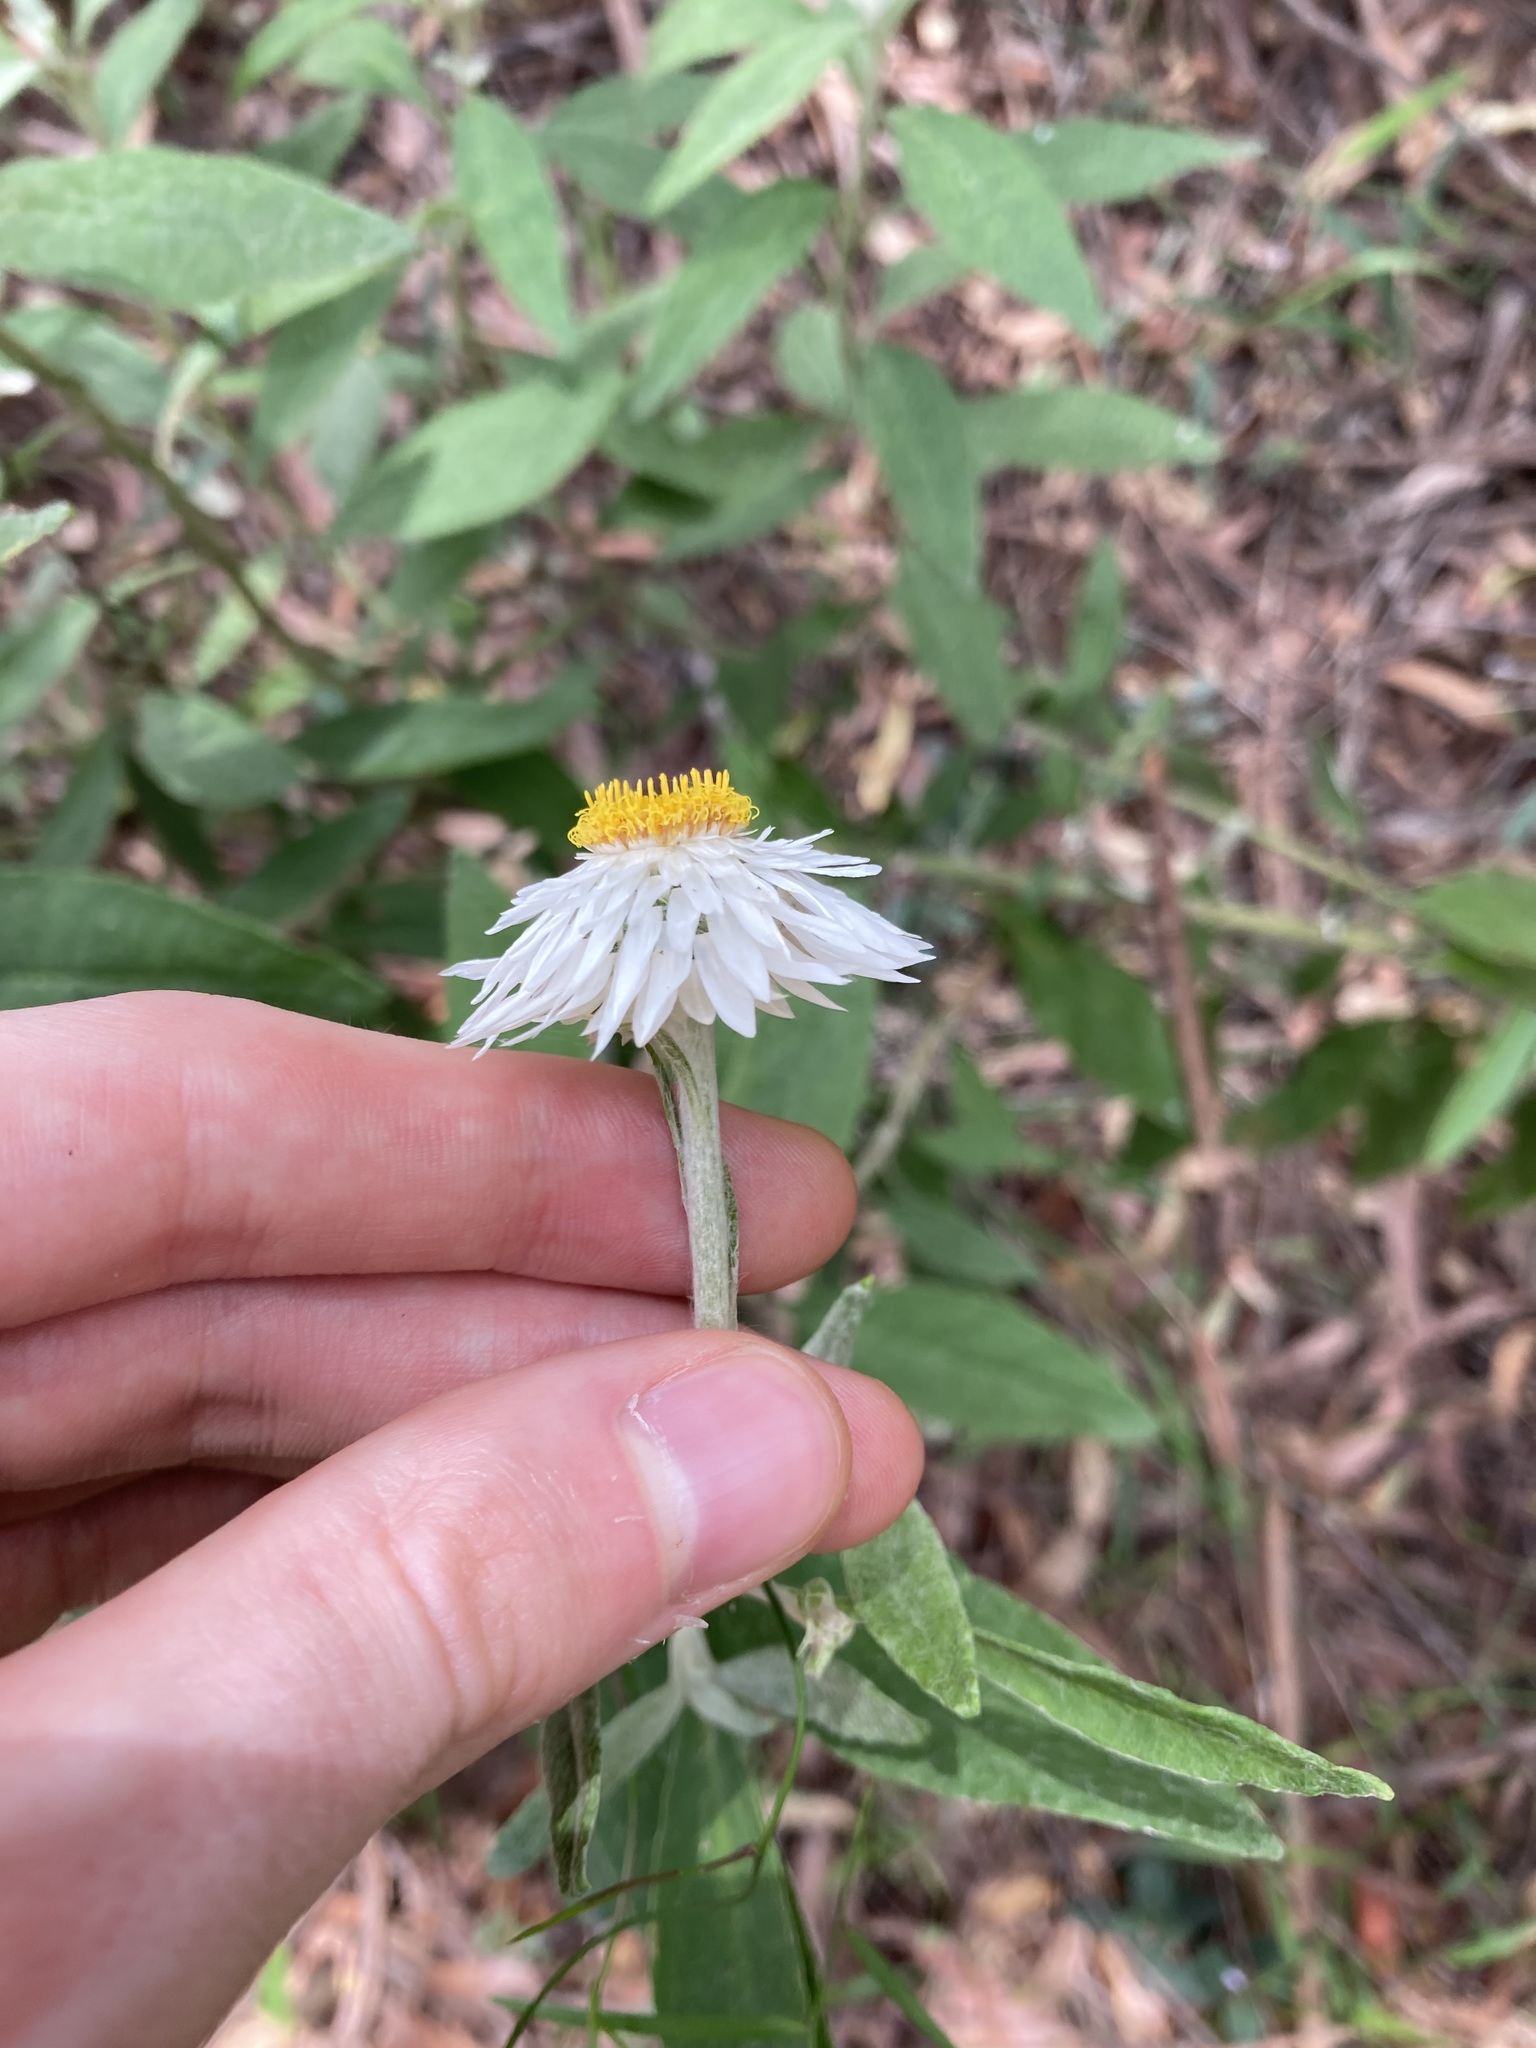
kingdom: Plantae
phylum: Tracheophyta
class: Magnoliopsida
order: Asterales
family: Asteraceae
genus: Leucozoma
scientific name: Leucozoma elatum
